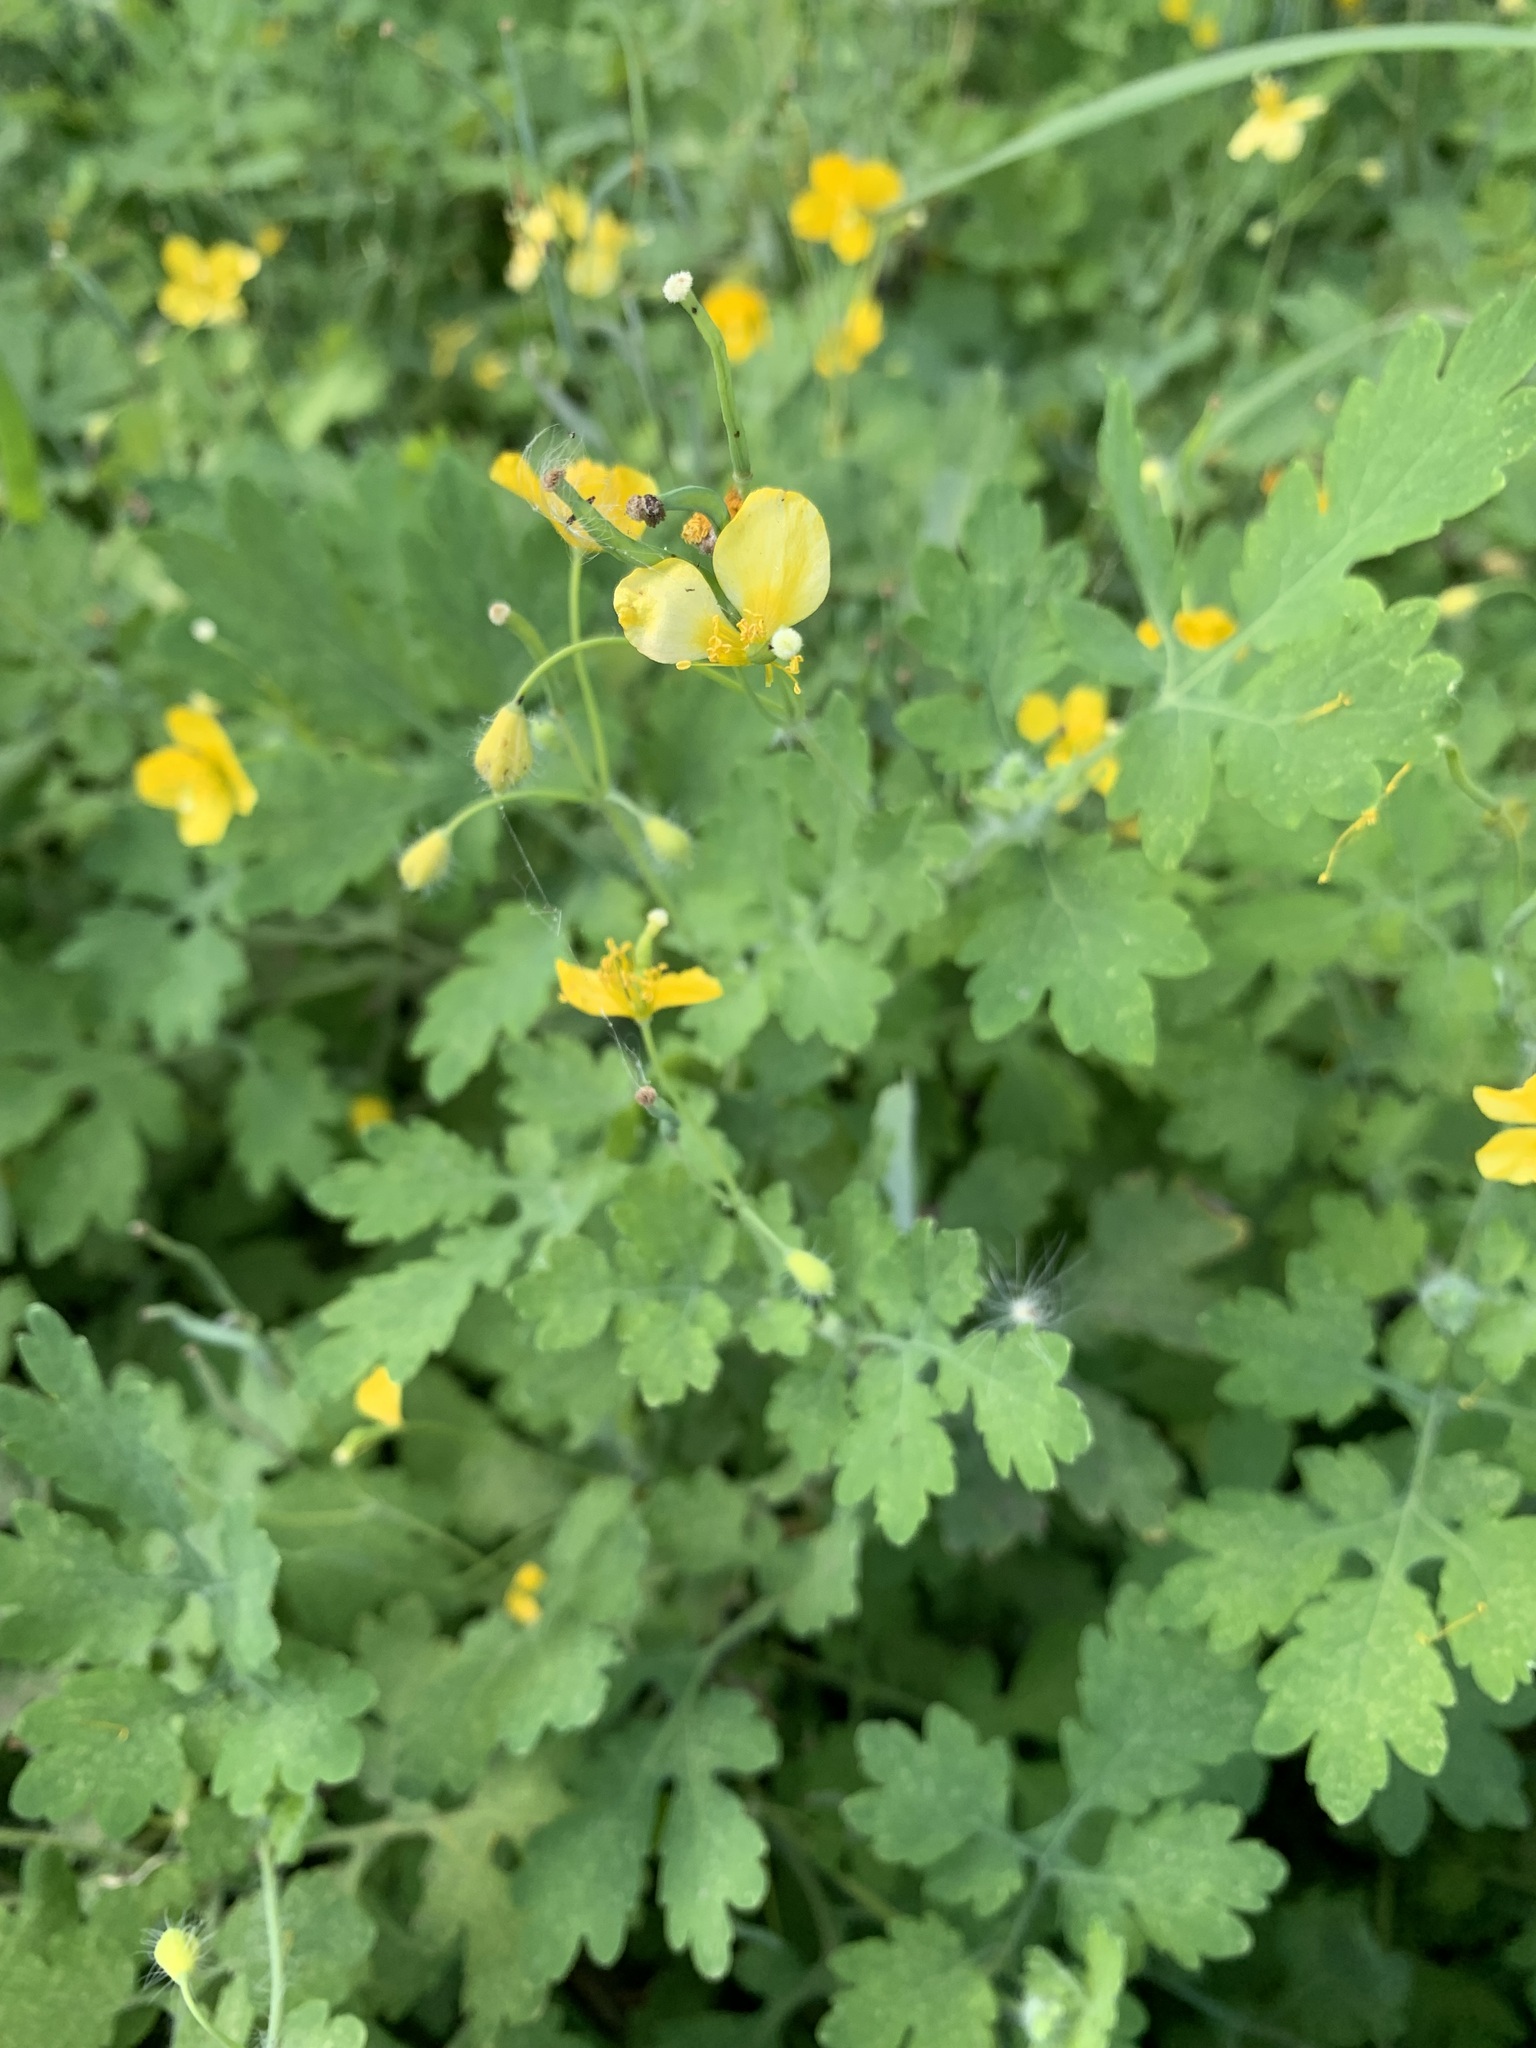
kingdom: Plantae
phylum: Tracheophyta
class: Magnoliopsida
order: Ranunculales
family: Papaveraceae
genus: Chelidonium
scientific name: Chelidonium majus
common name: Greater celandine
